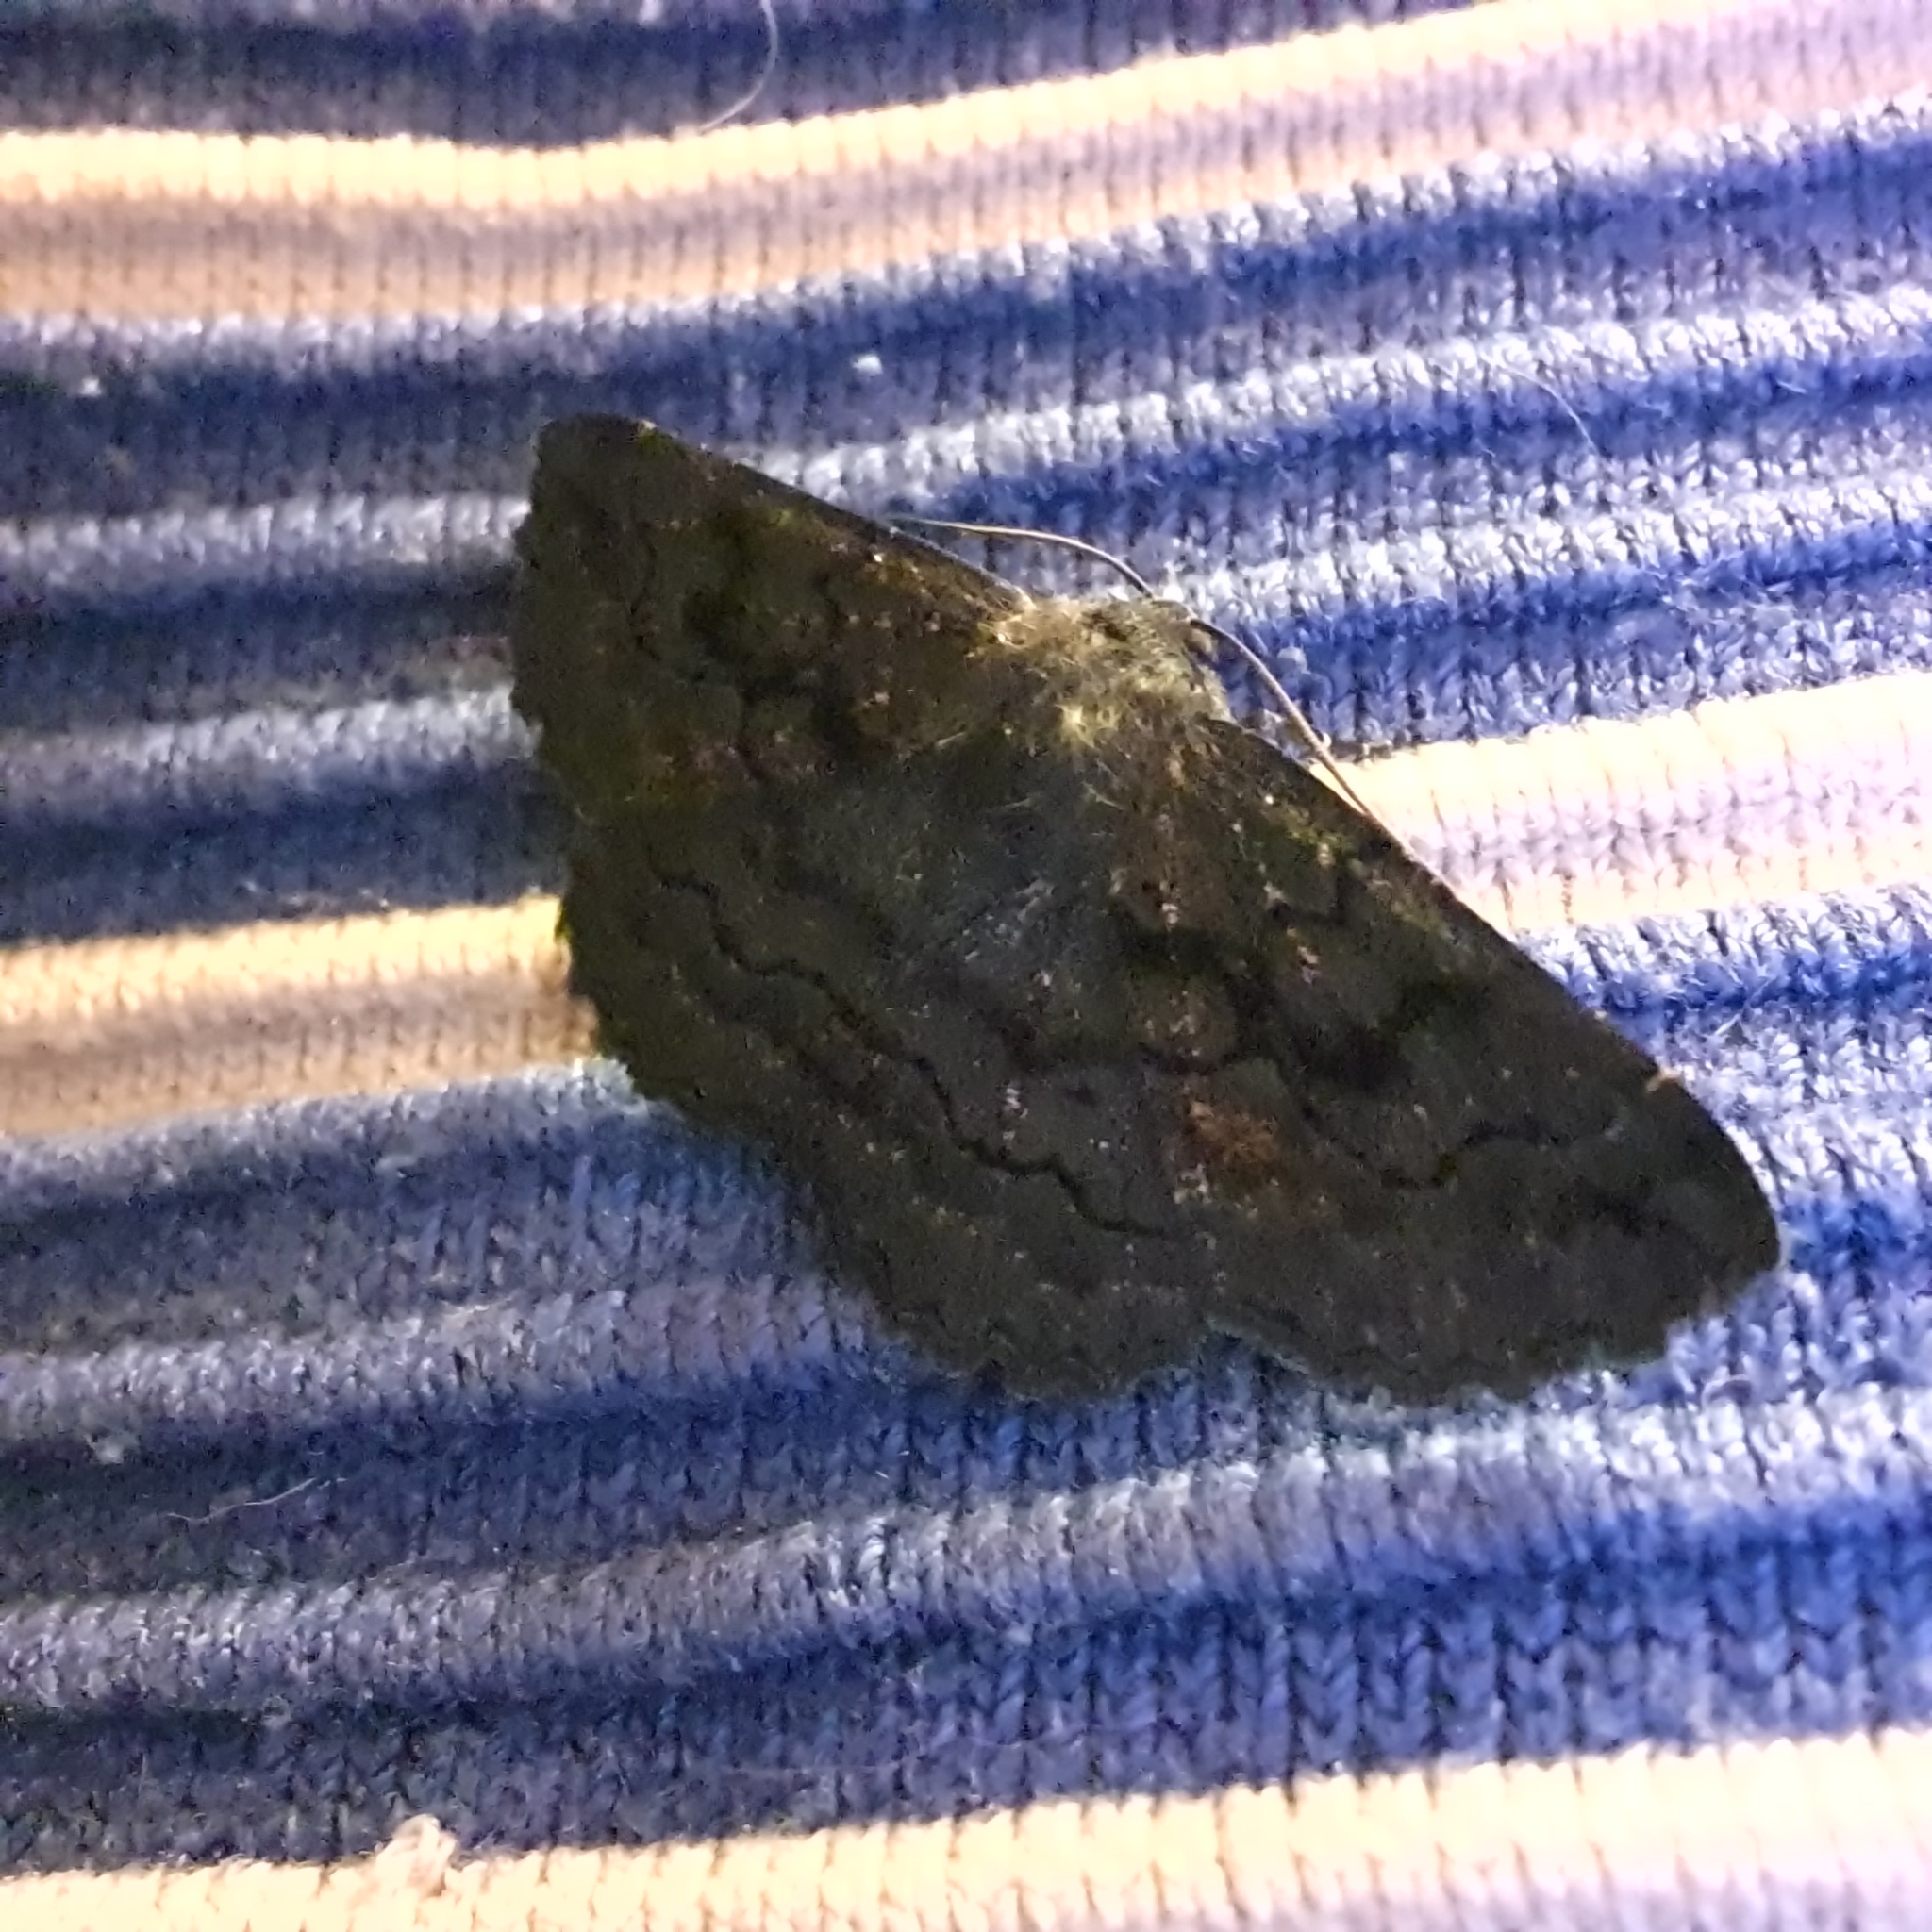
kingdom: Animalia
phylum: Arthropoda
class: Insecta
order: Lepidoptera
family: Geometridae
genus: Melanodes
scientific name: Melanodes anthracitaria
